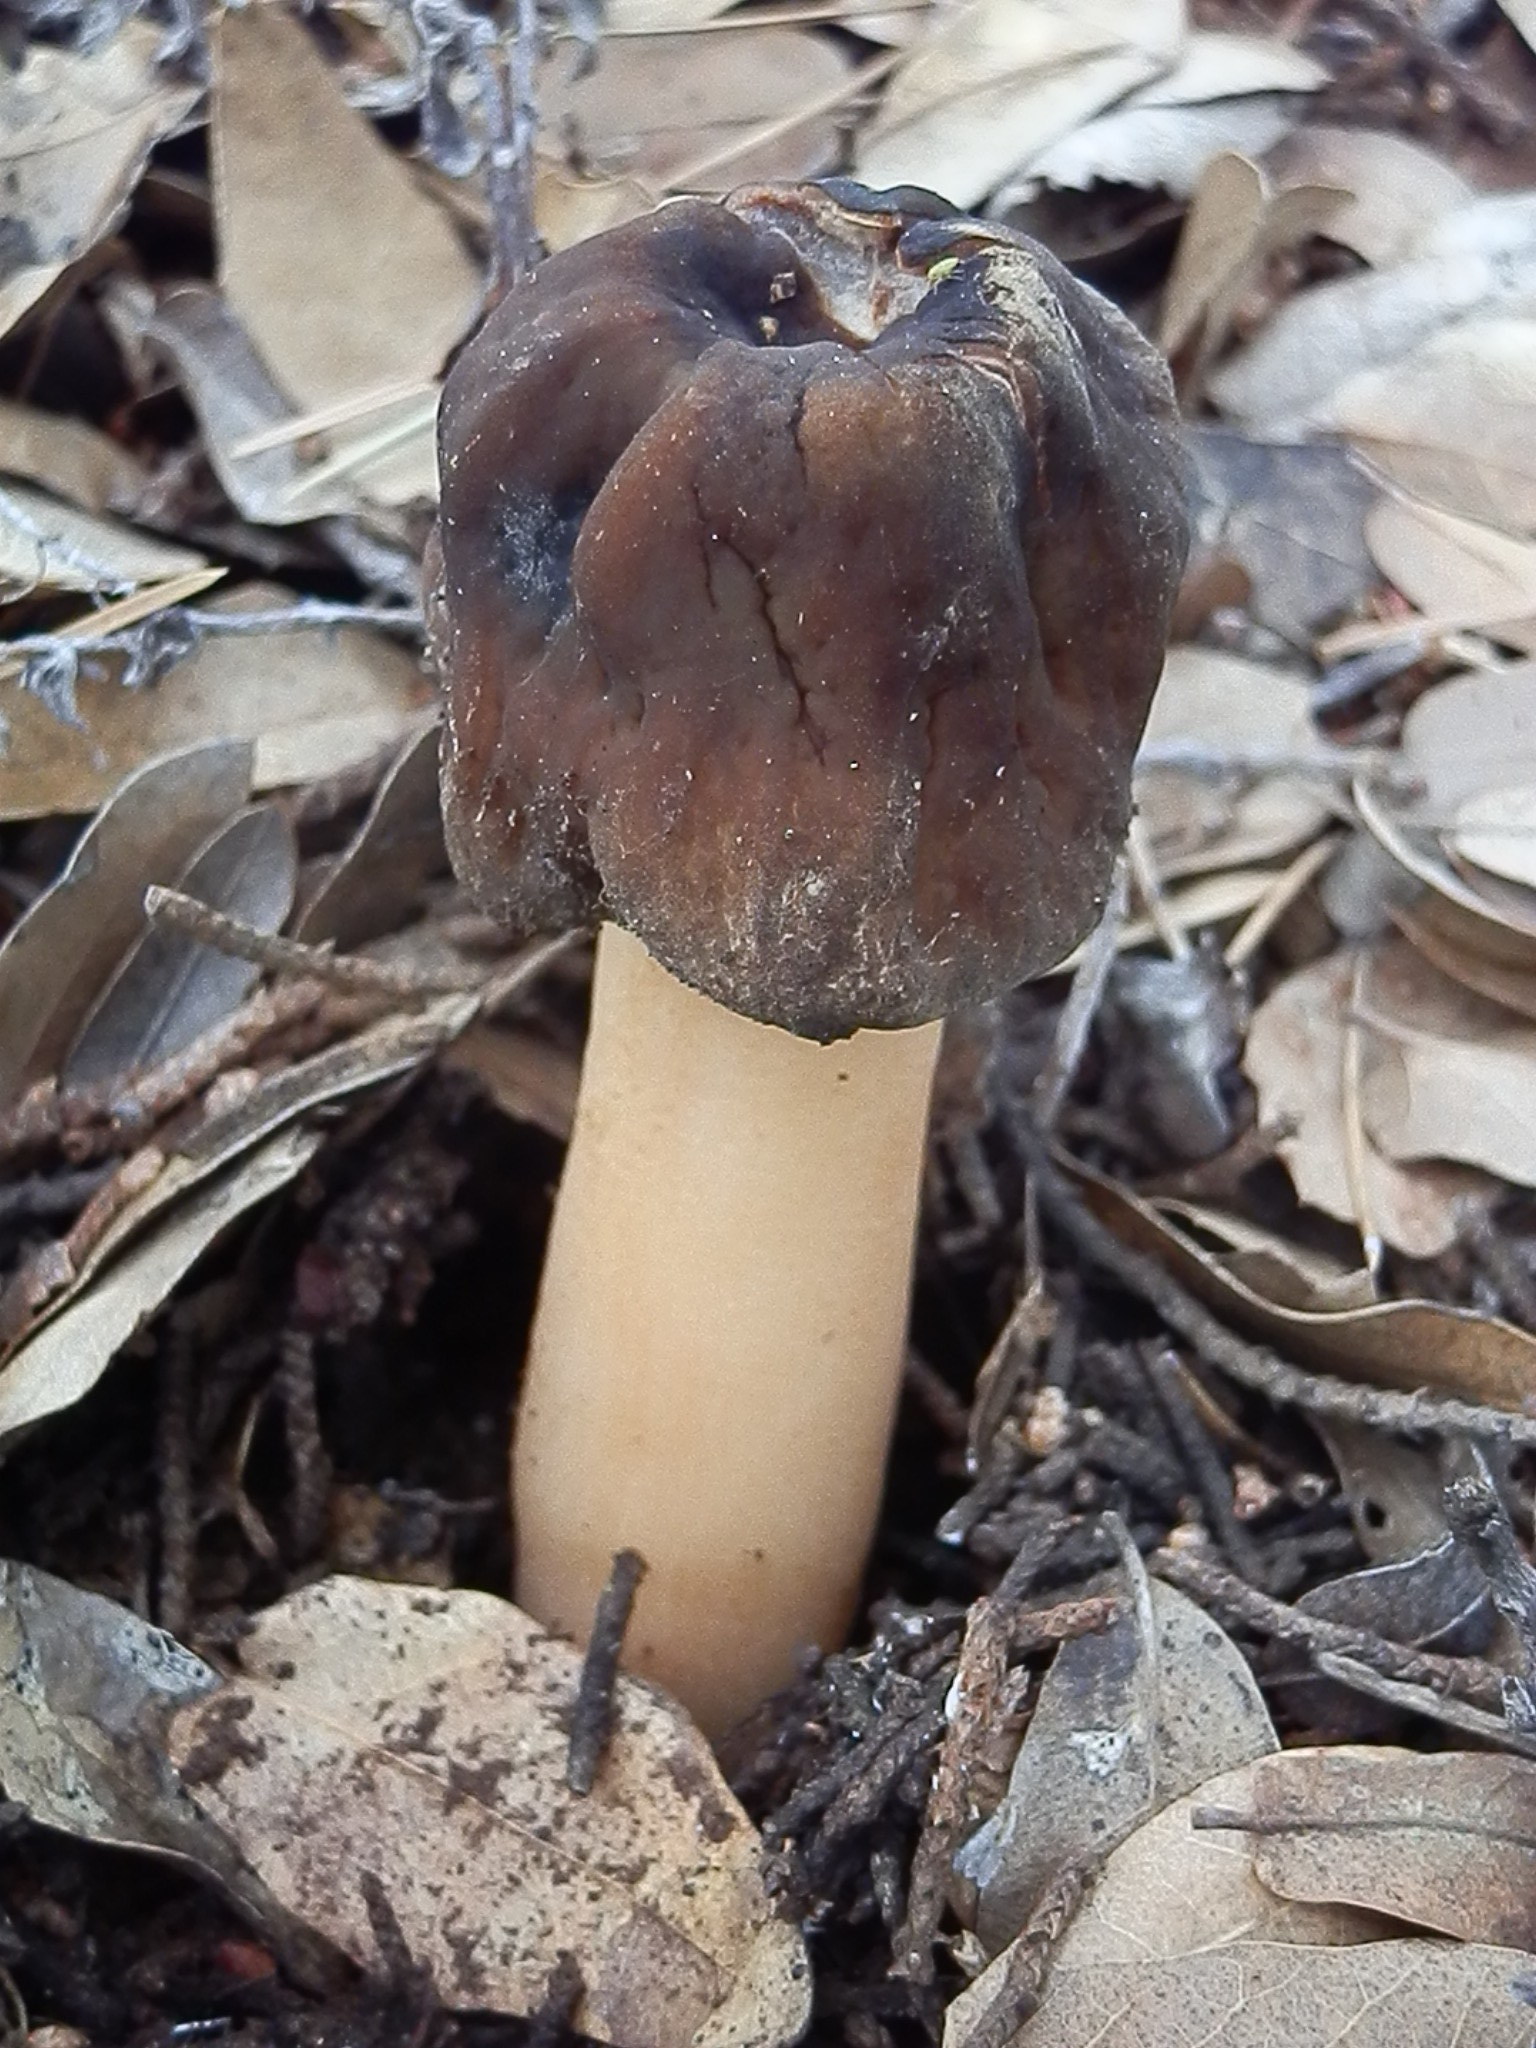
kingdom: Fungi
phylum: Ascomycota
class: Pezizomycetes
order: Pezizales
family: Morchellaceae
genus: Verpa
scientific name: Verpa conica
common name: Thimble morel
